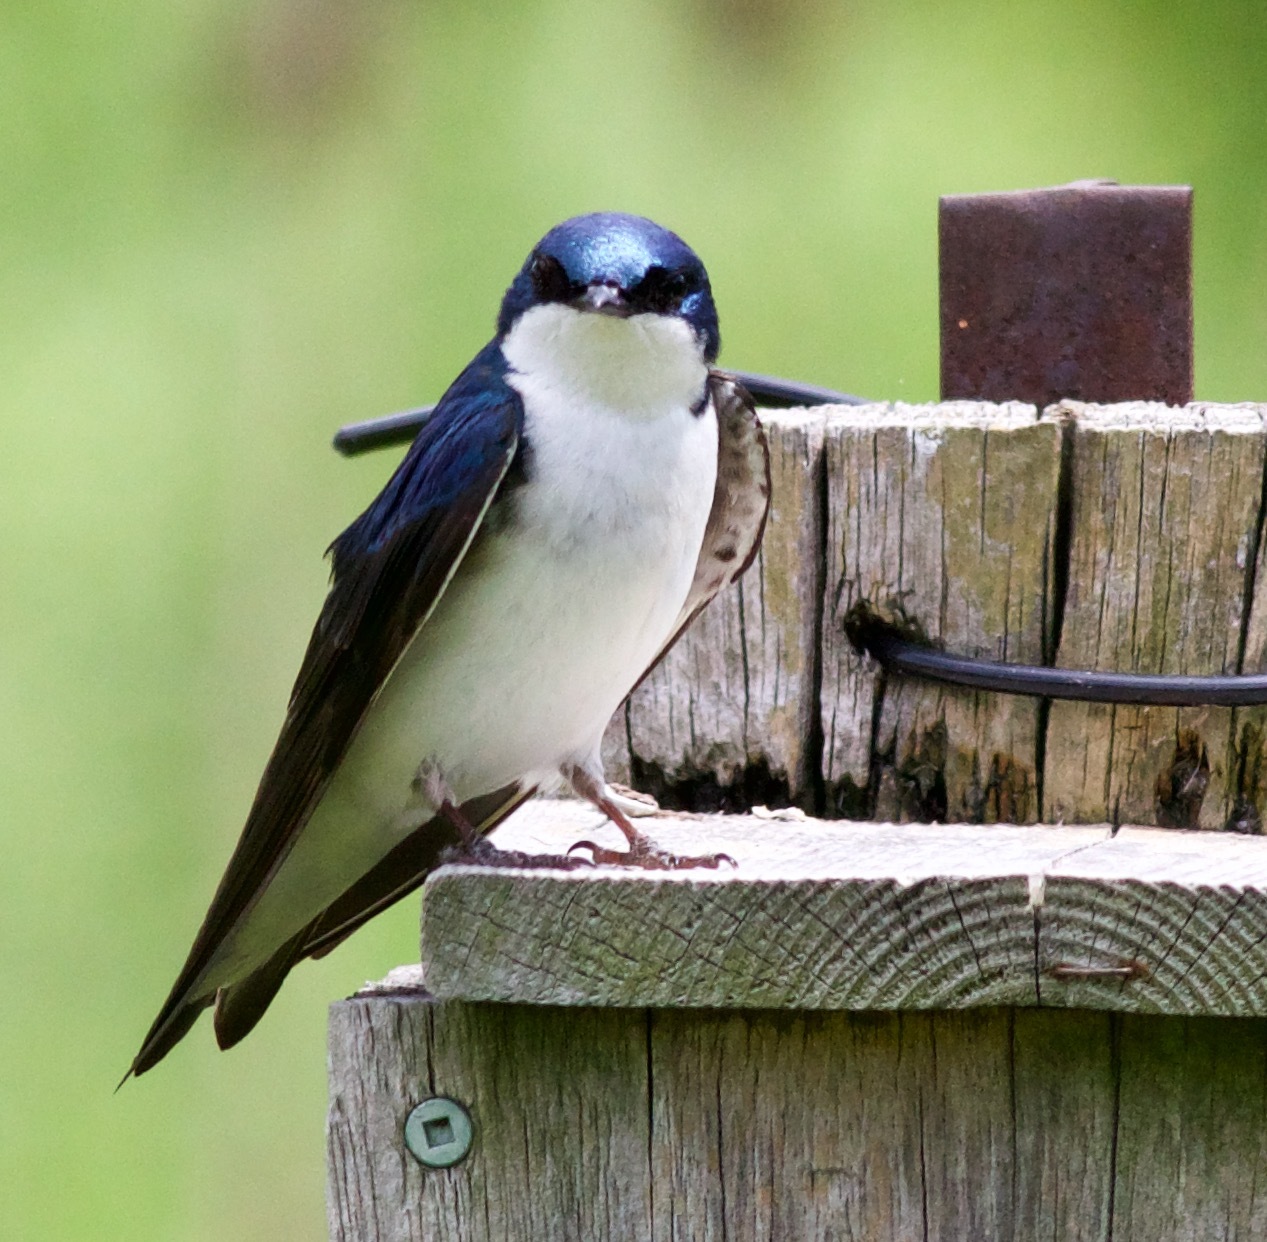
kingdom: Animalia
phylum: Chordata
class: Aves
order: Passeriformes
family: Hirundinidae
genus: Tachycineta
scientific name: Tachycineta bicolor
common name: Tree swallow
